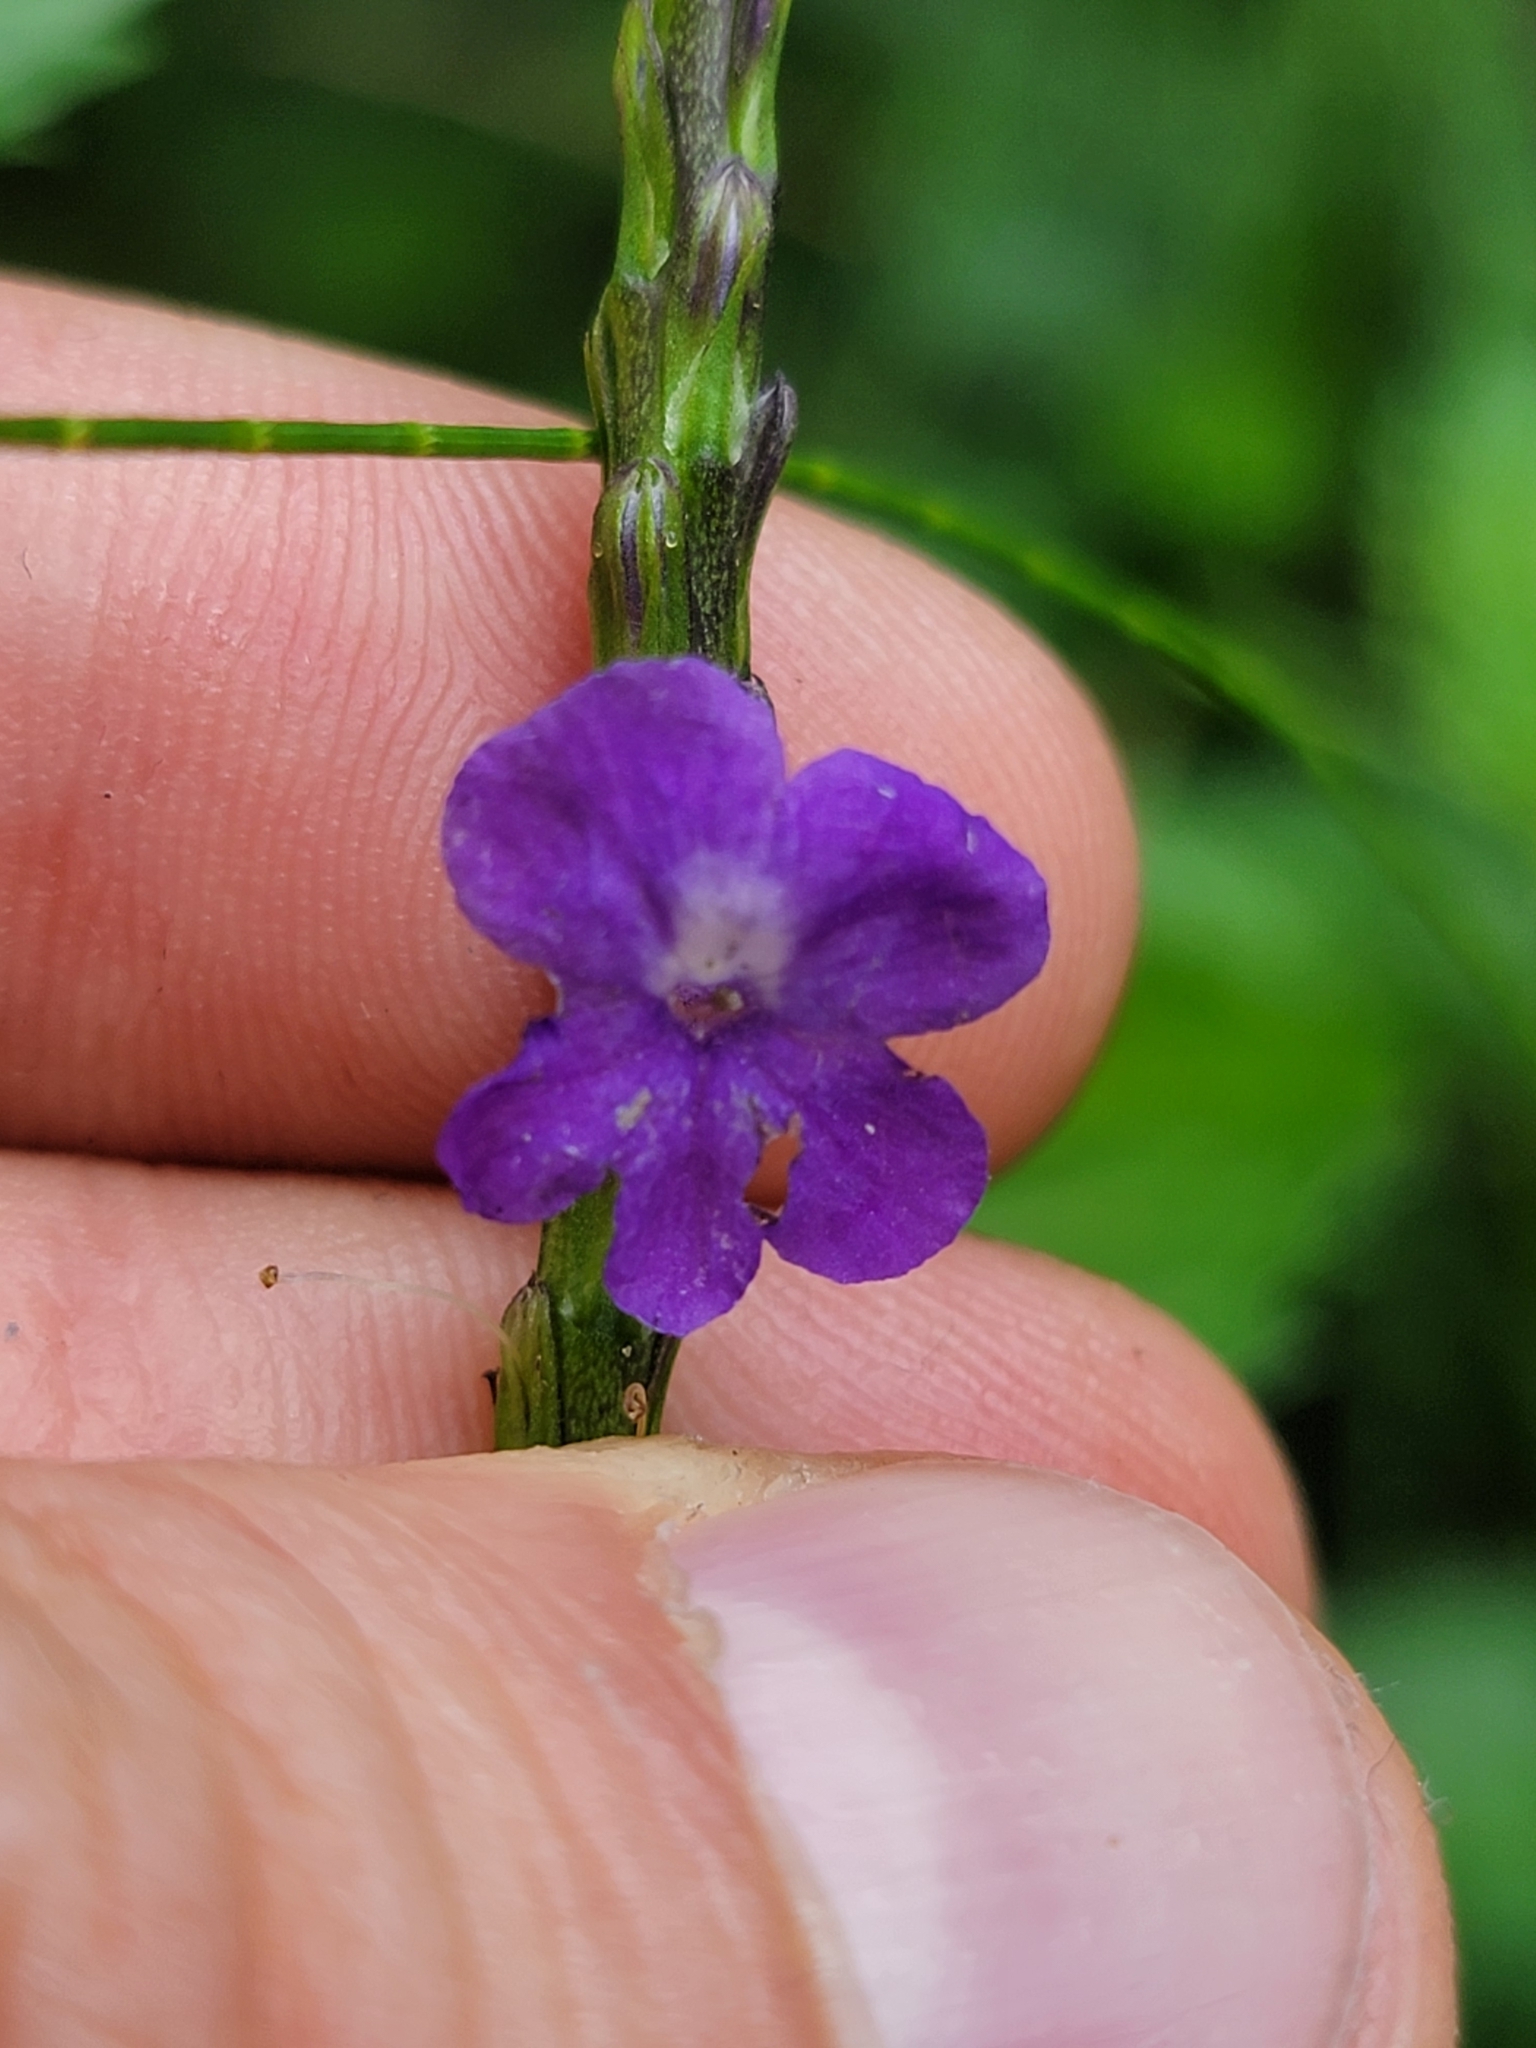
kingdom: Plantae
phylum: Tracheophyta
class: Magnoliopsida
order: Lamiales
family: Verbenaceae
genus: Stachytarpheta
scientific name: Stachytarpheta cayennensis
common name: Cayenne porterweed
